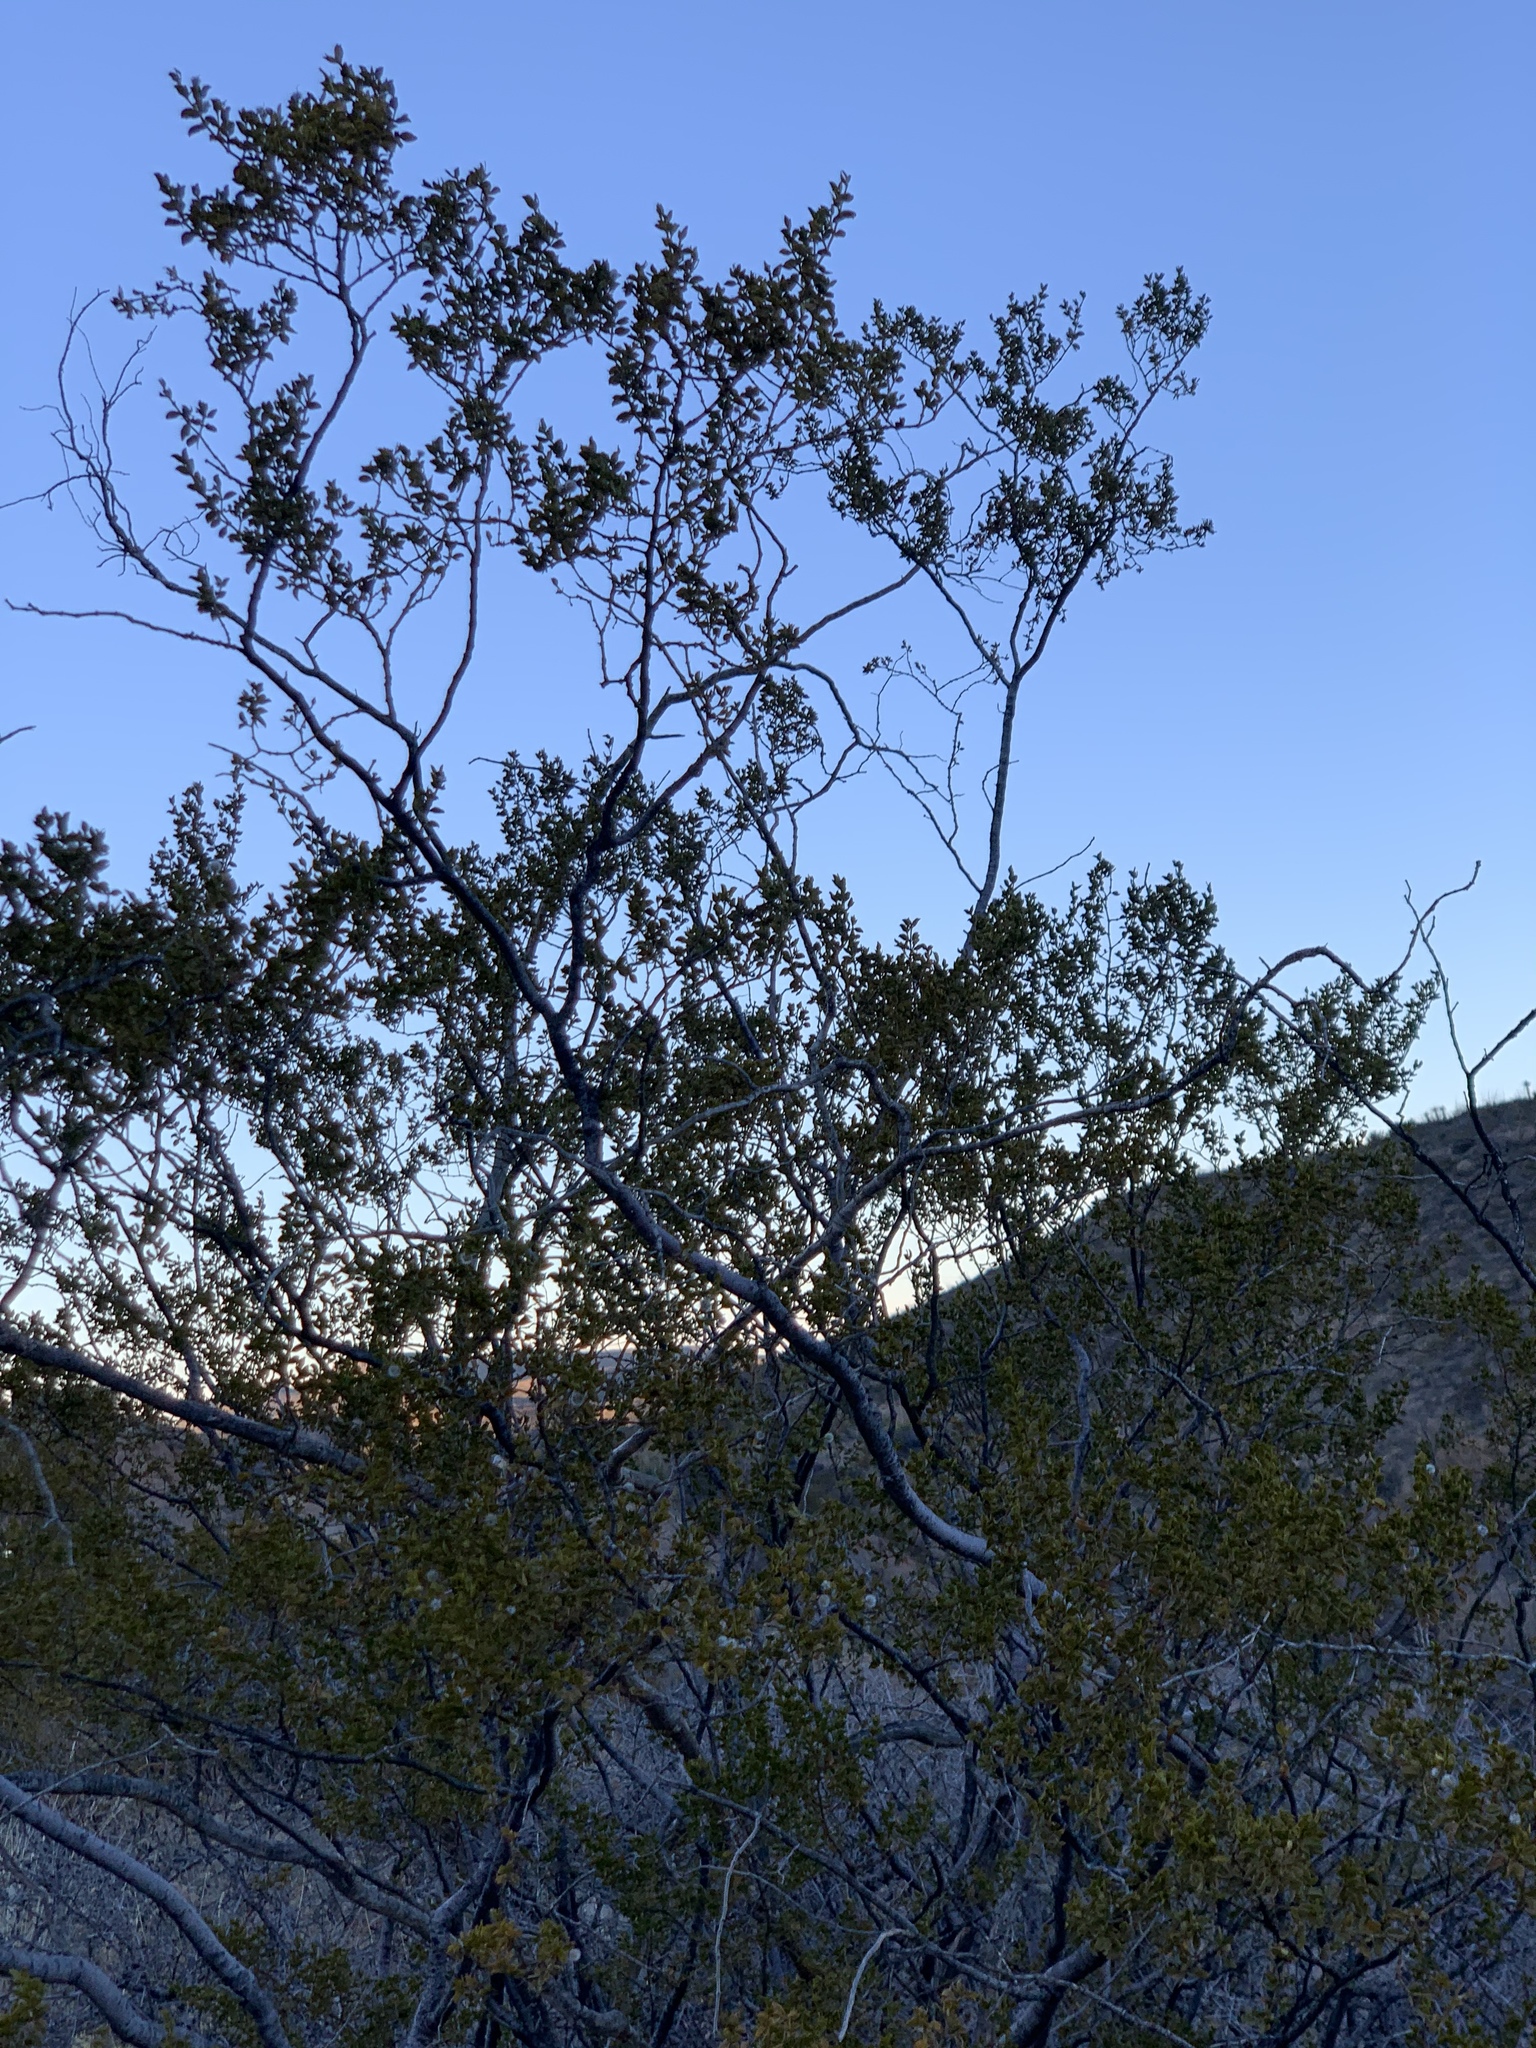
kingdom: Plantae
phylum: Tracheophyta
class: Magnoliopsida
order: Zygophyllales
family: Zygophyllaceae
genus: Larrea
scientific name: Larrea tridentata
